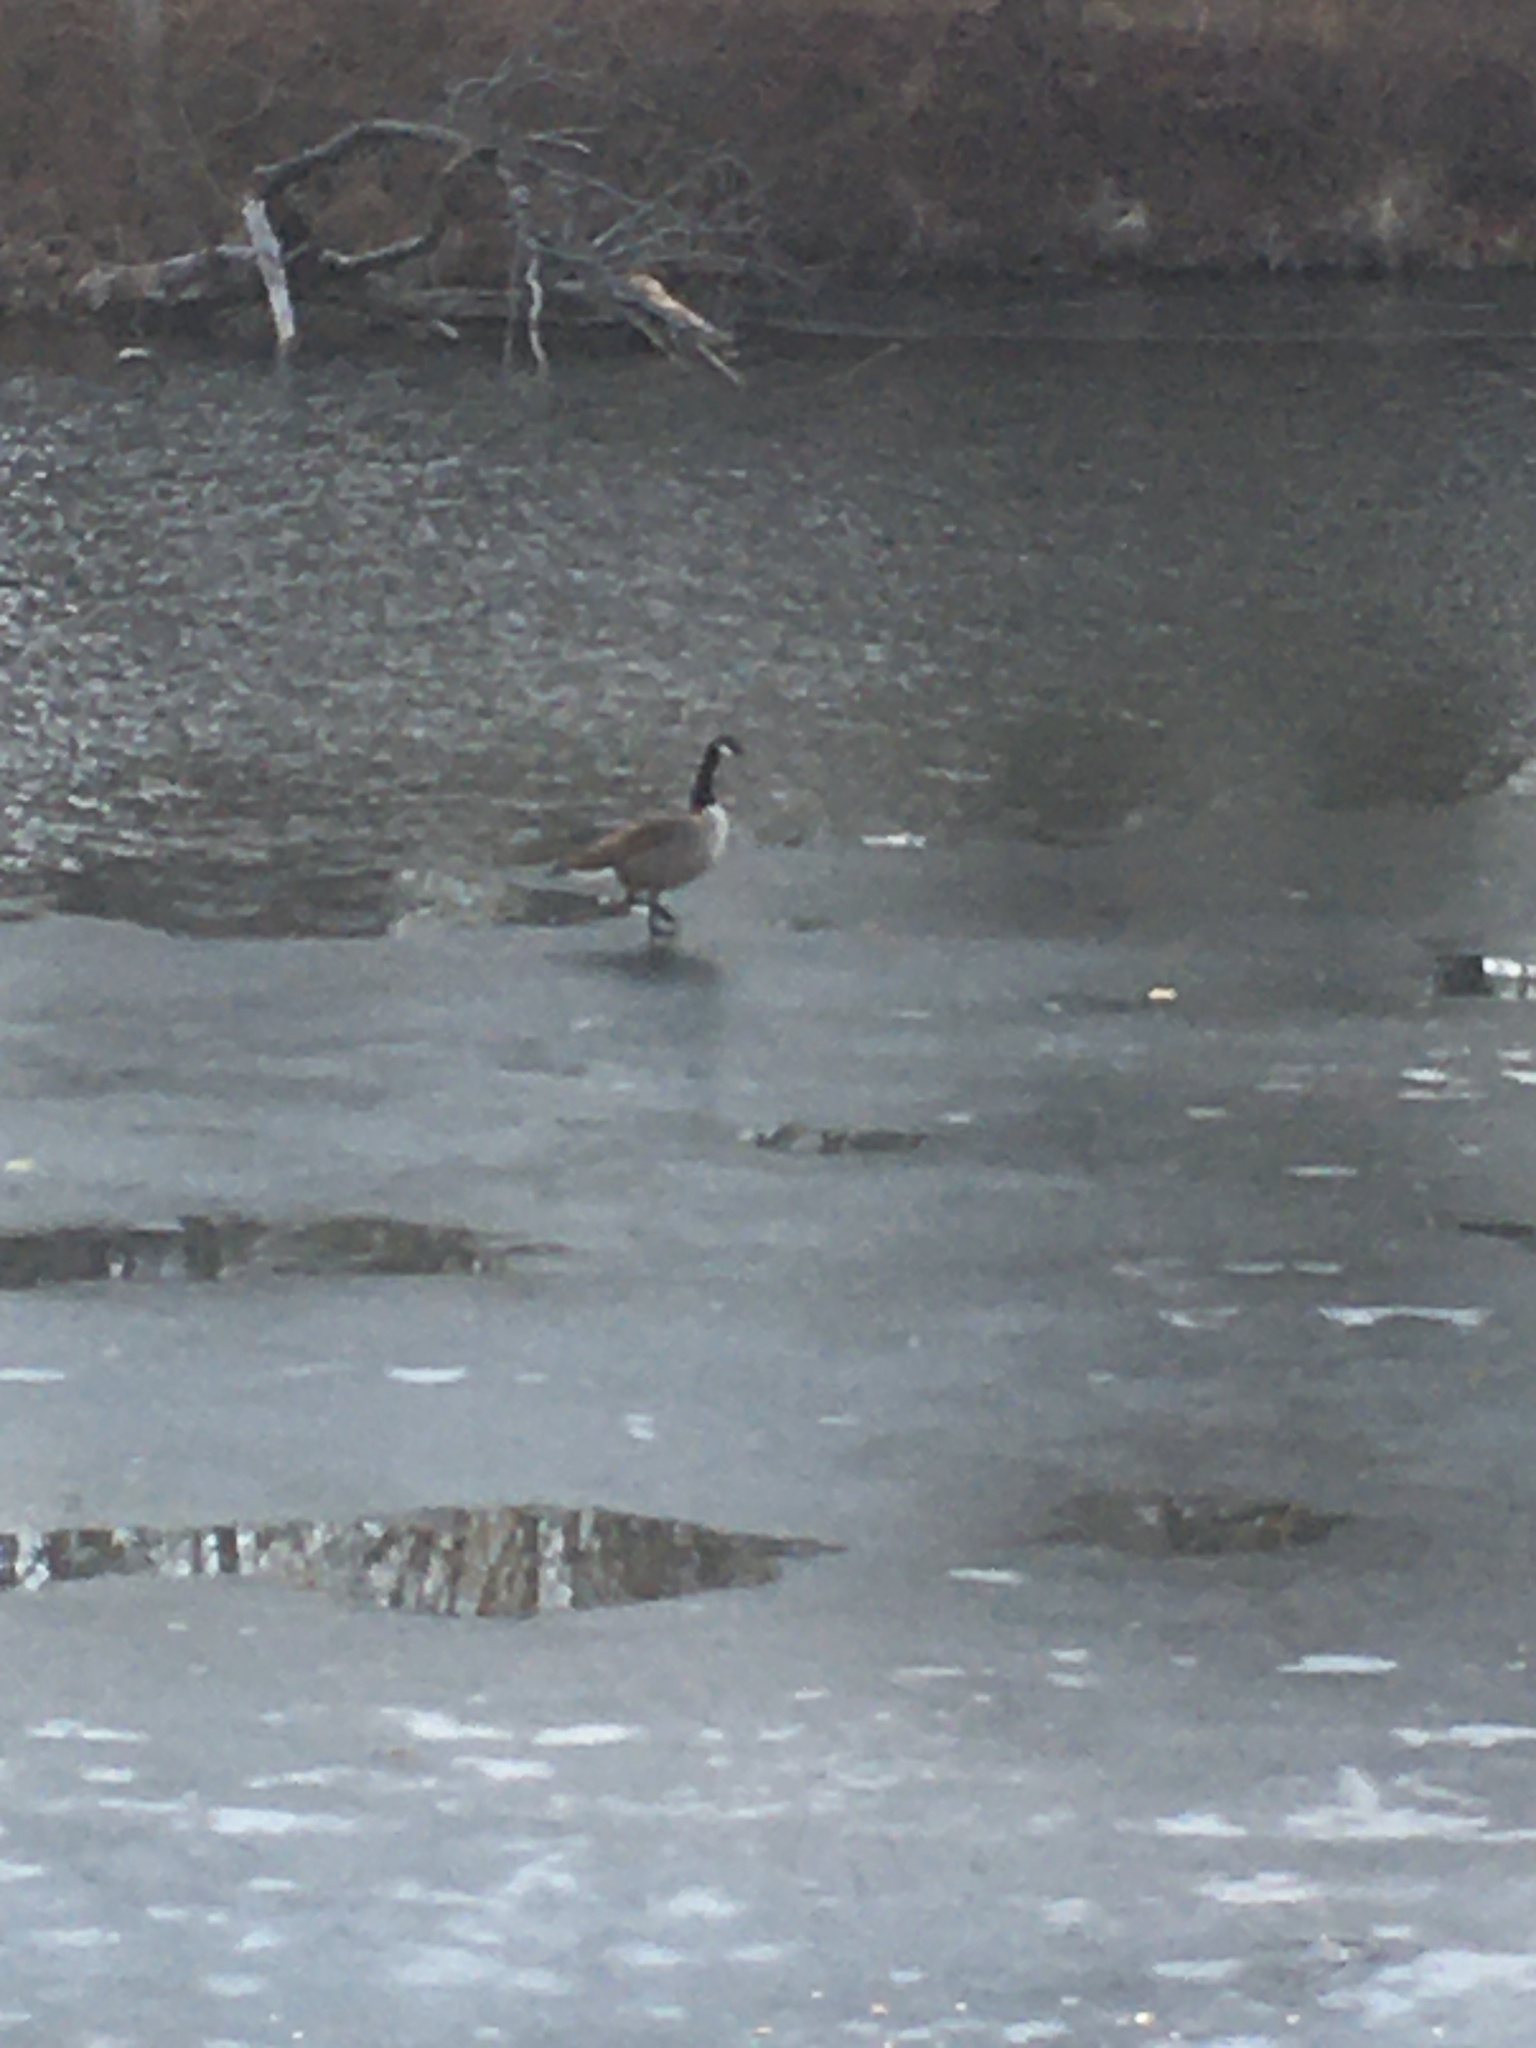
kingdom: Animalia
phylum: Chordata
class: Aves
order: Anseriformes
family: Anatidae
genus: Branta
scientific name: Branta canadensis
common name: Canada goose
